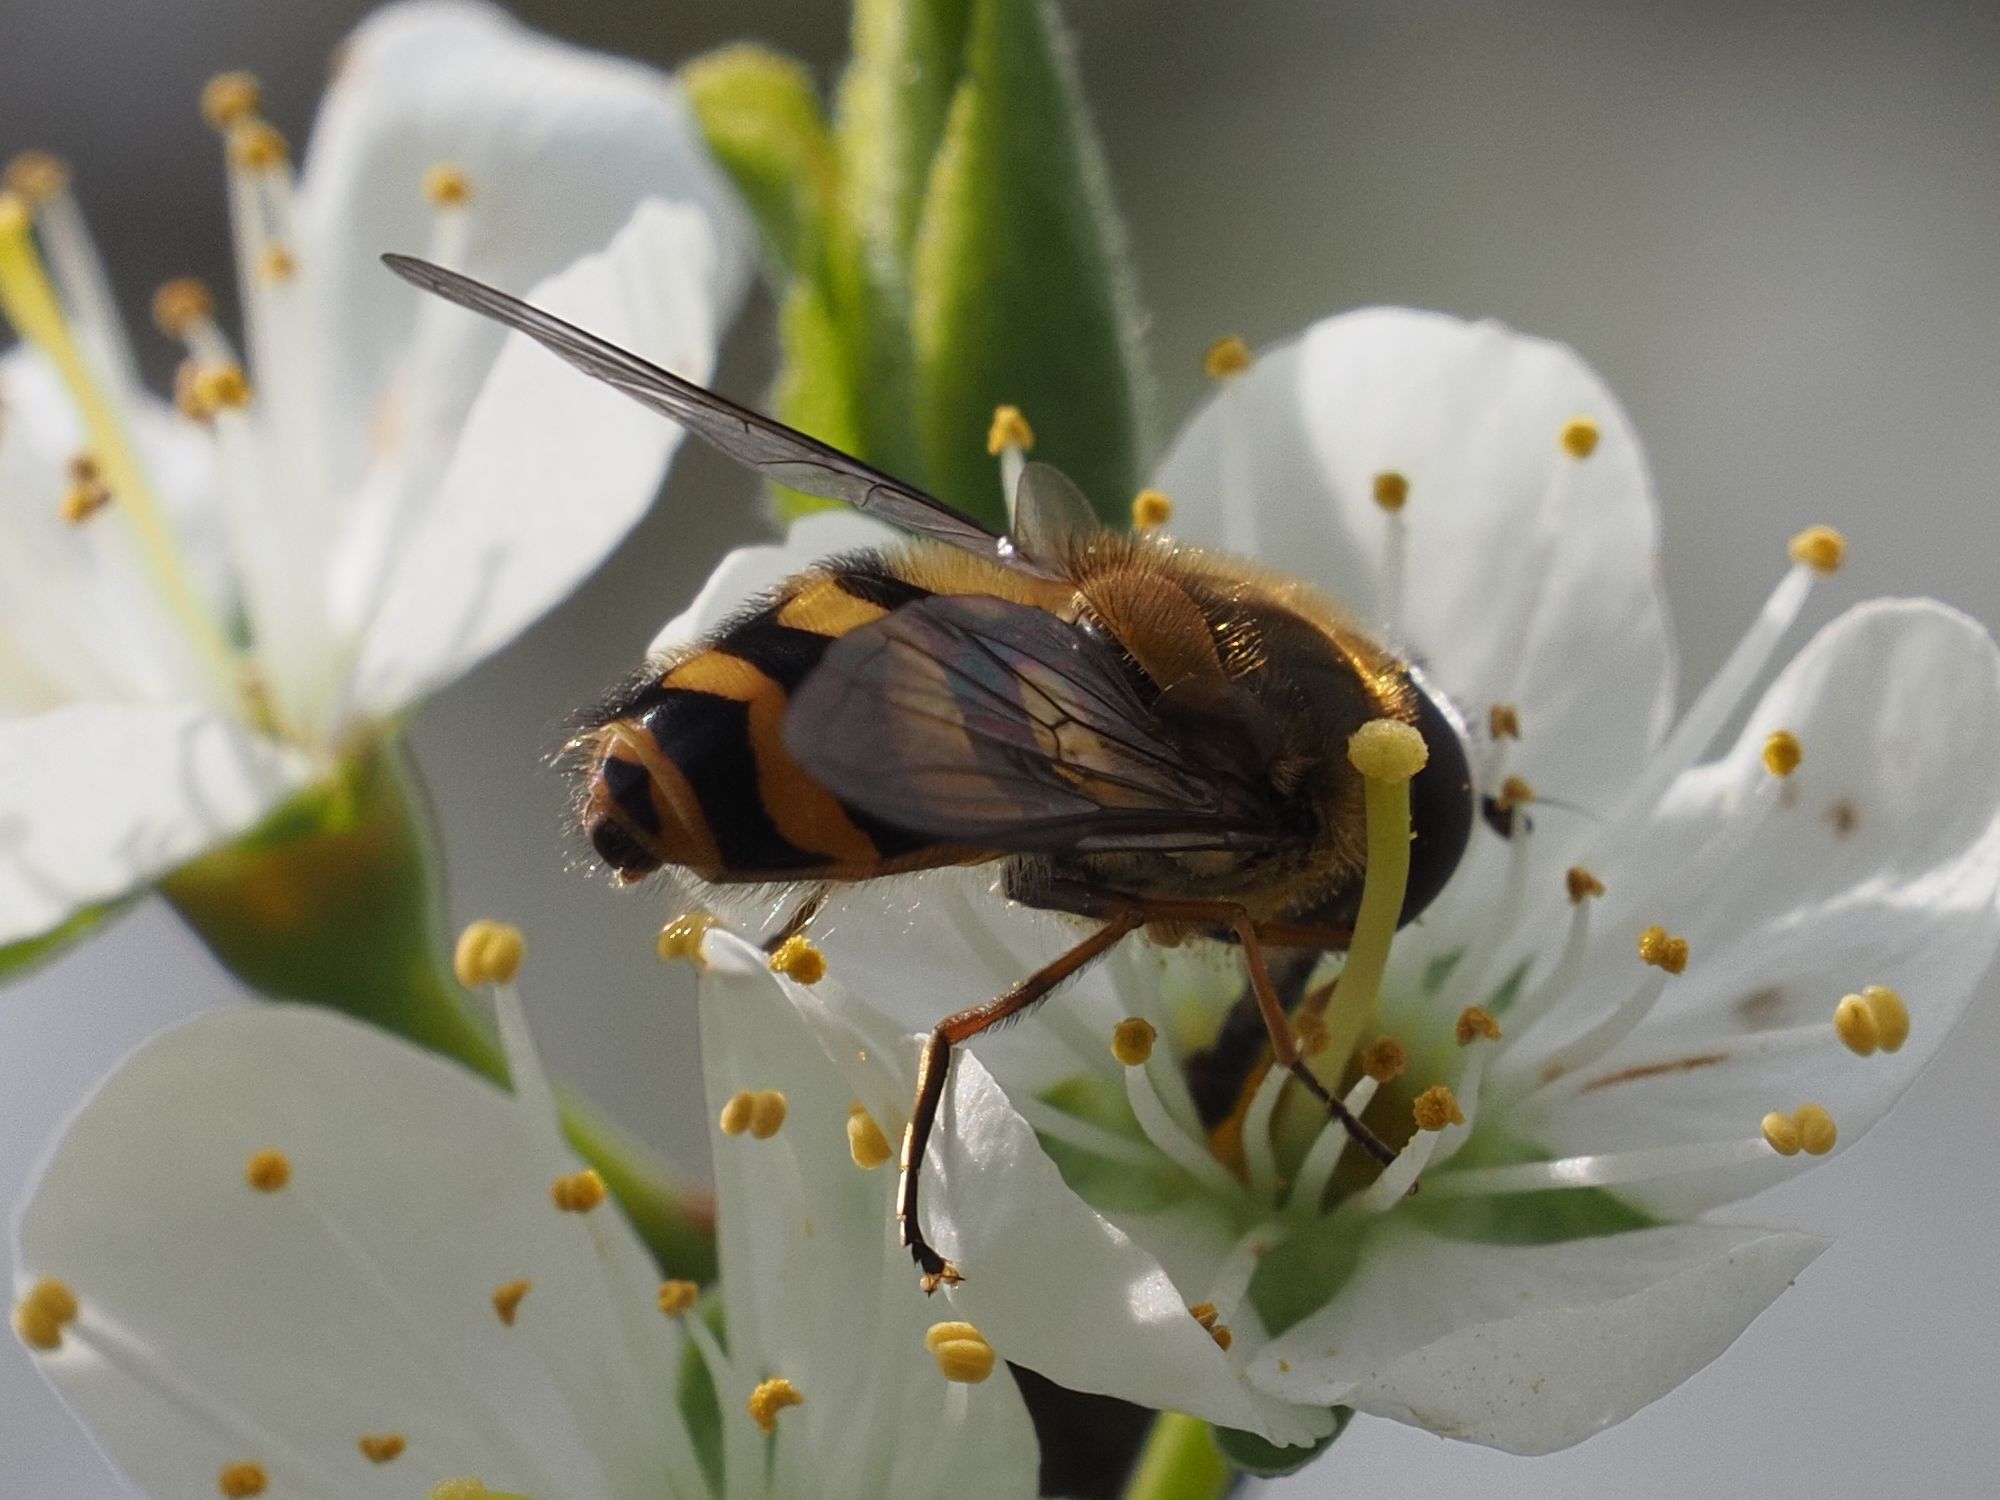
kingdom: Animalia
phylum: Arthropoda
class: Insecta
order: Diptera
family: Syrphidae
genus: Syrphus
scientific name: Syrphus
